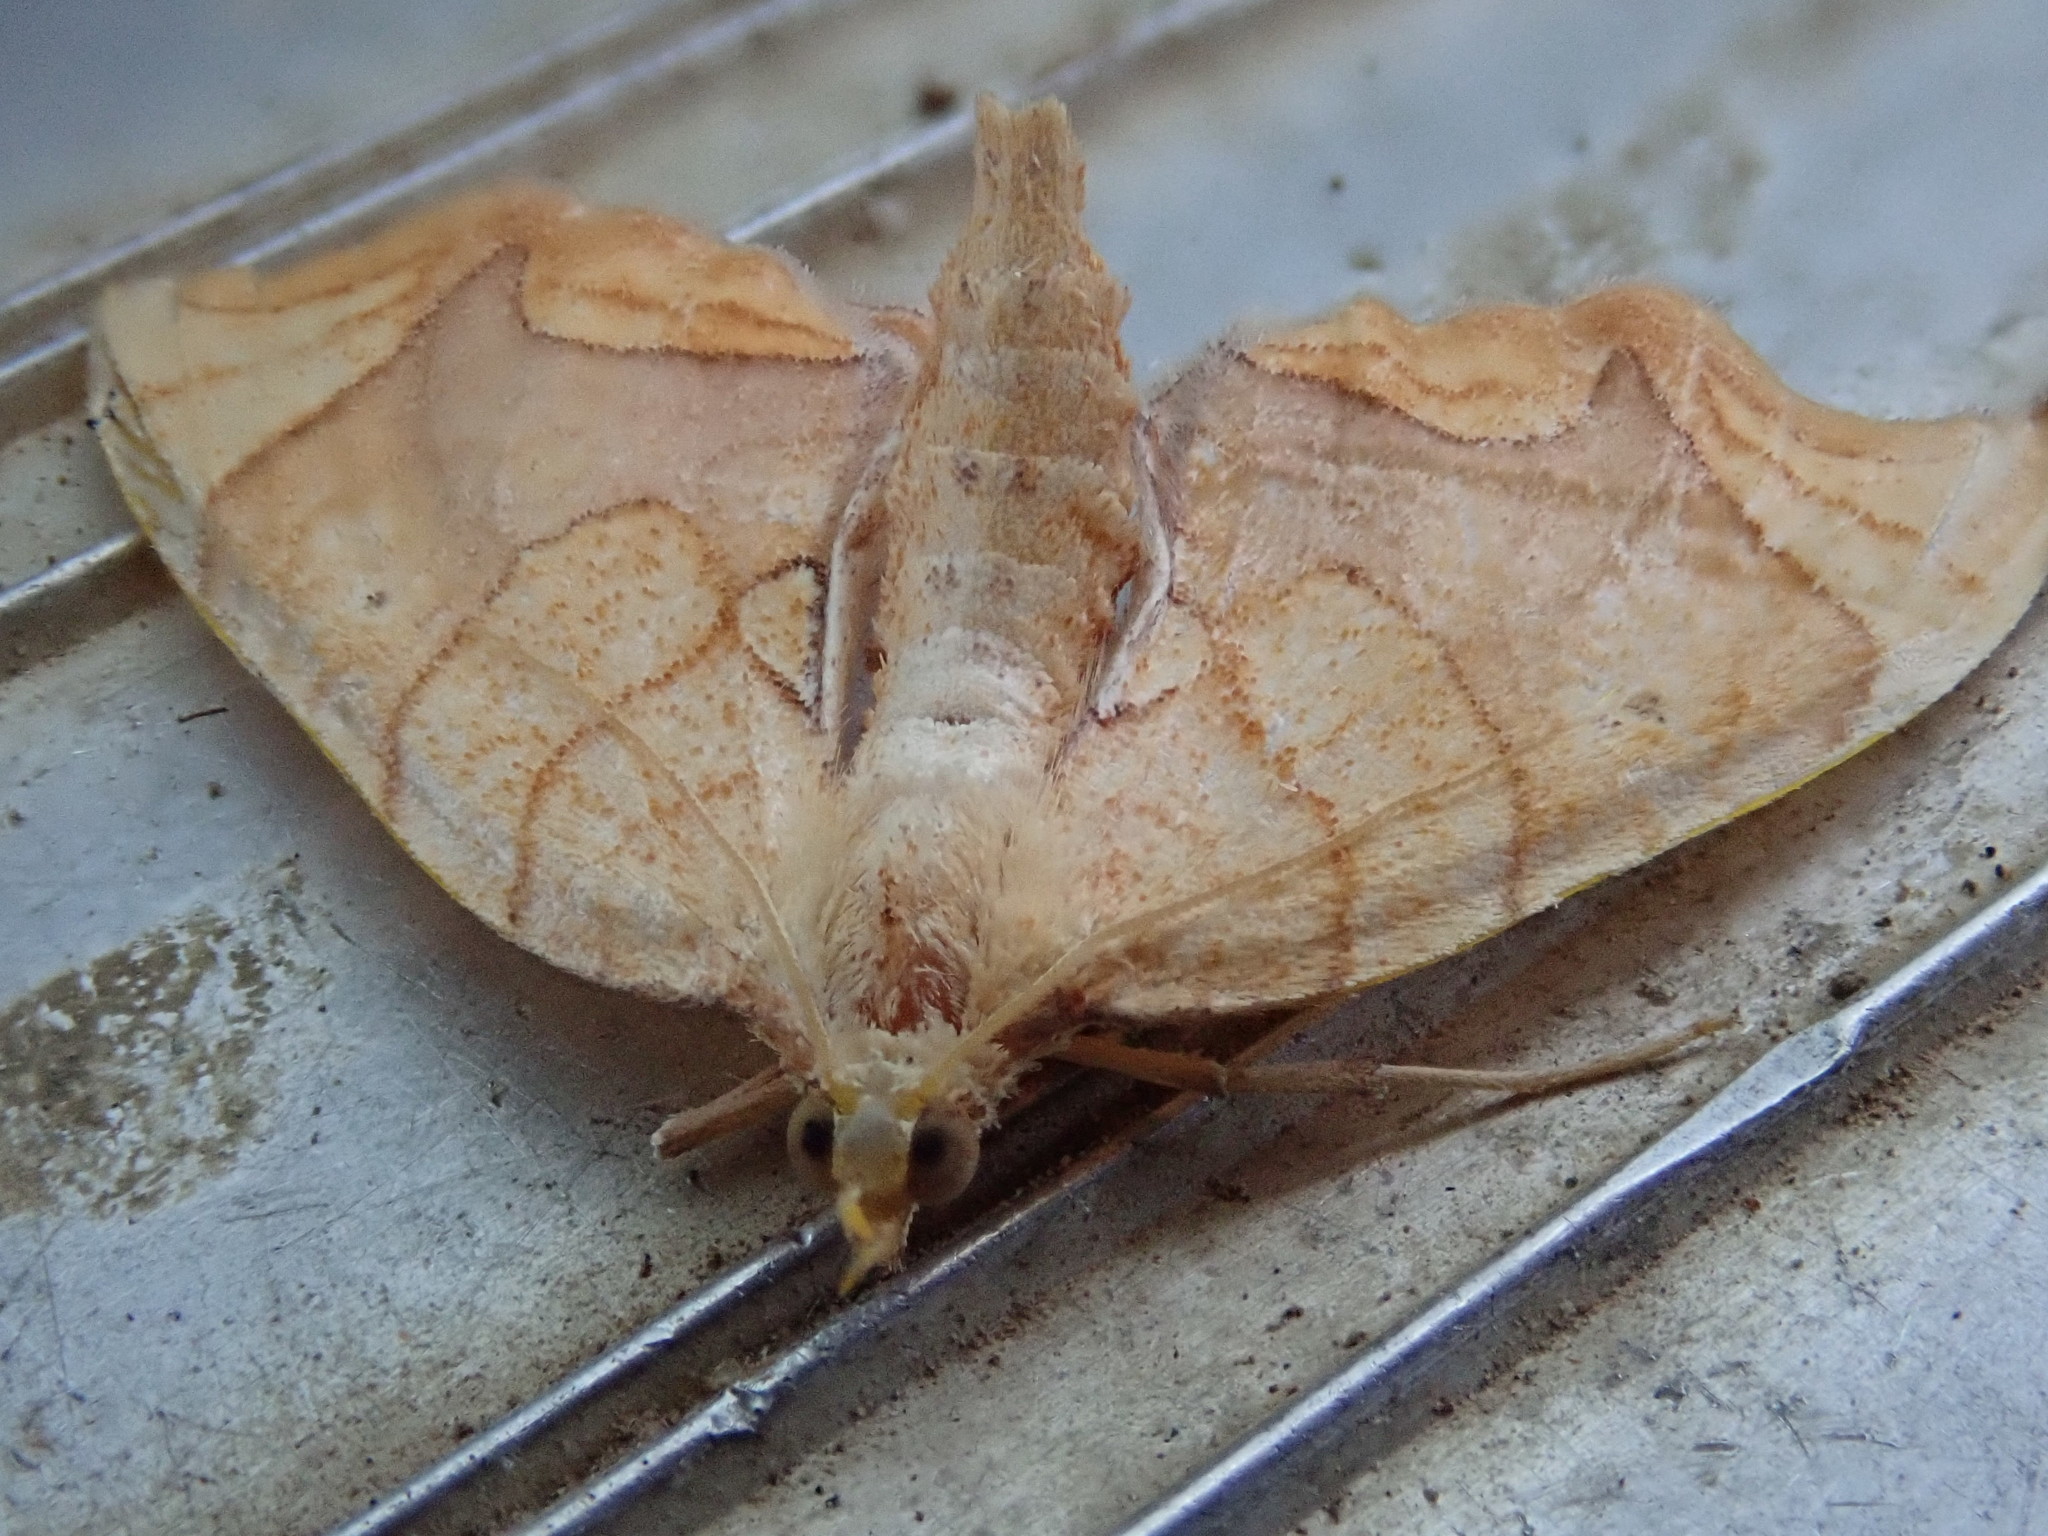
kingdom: Animalia
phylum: Arthropoda
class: Insecta
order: Lepidoptera
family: Geometridae
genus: Eulithis
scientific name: Eulithis
